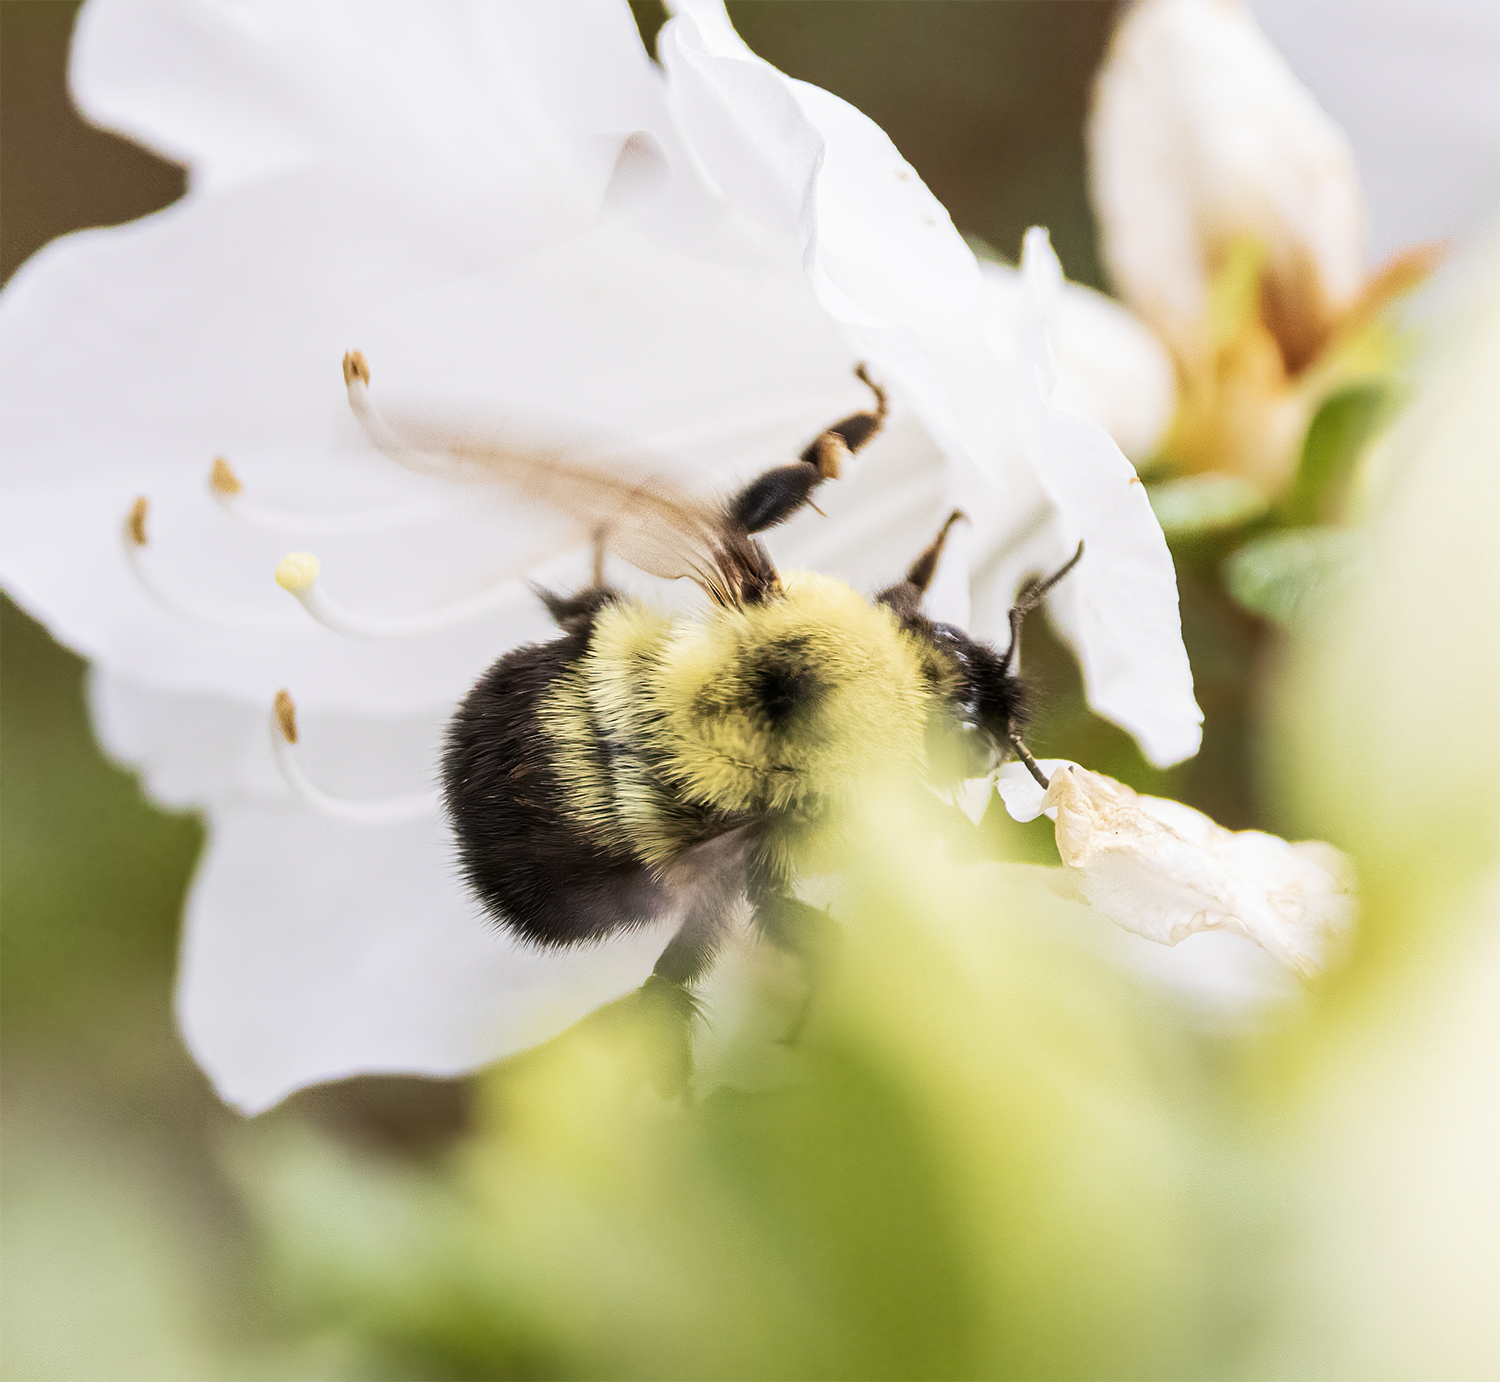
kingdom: Animalia
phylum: Arthropoda
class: Insecta
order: Hymenoptera
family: Apidae
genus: Bombus
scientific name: Bombus bimaculatus
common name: Two-spotted bumble bee
